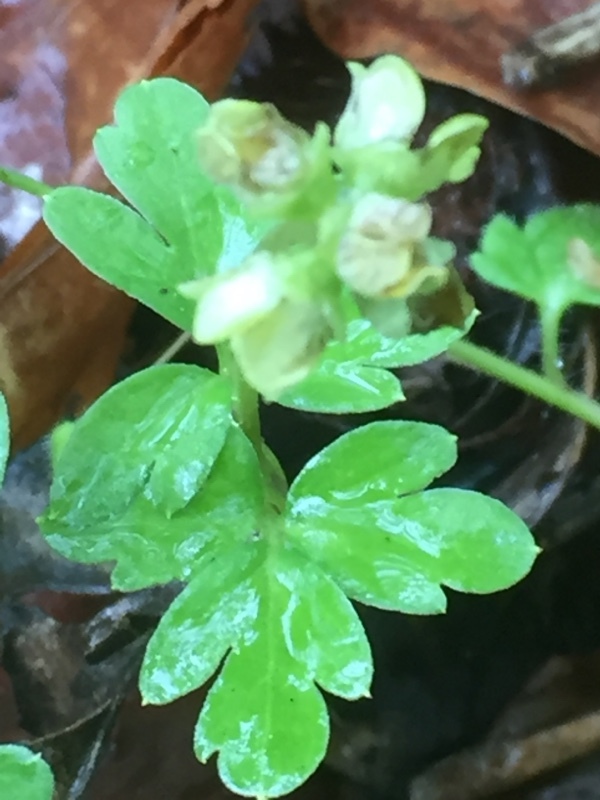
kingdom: Plantae
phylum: Tracheophyta
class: Magnoliopsida
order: Dipsacales
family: Viburnaceae
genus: Adoxa
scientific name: Adoxa moschatellina
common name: Moschatel
